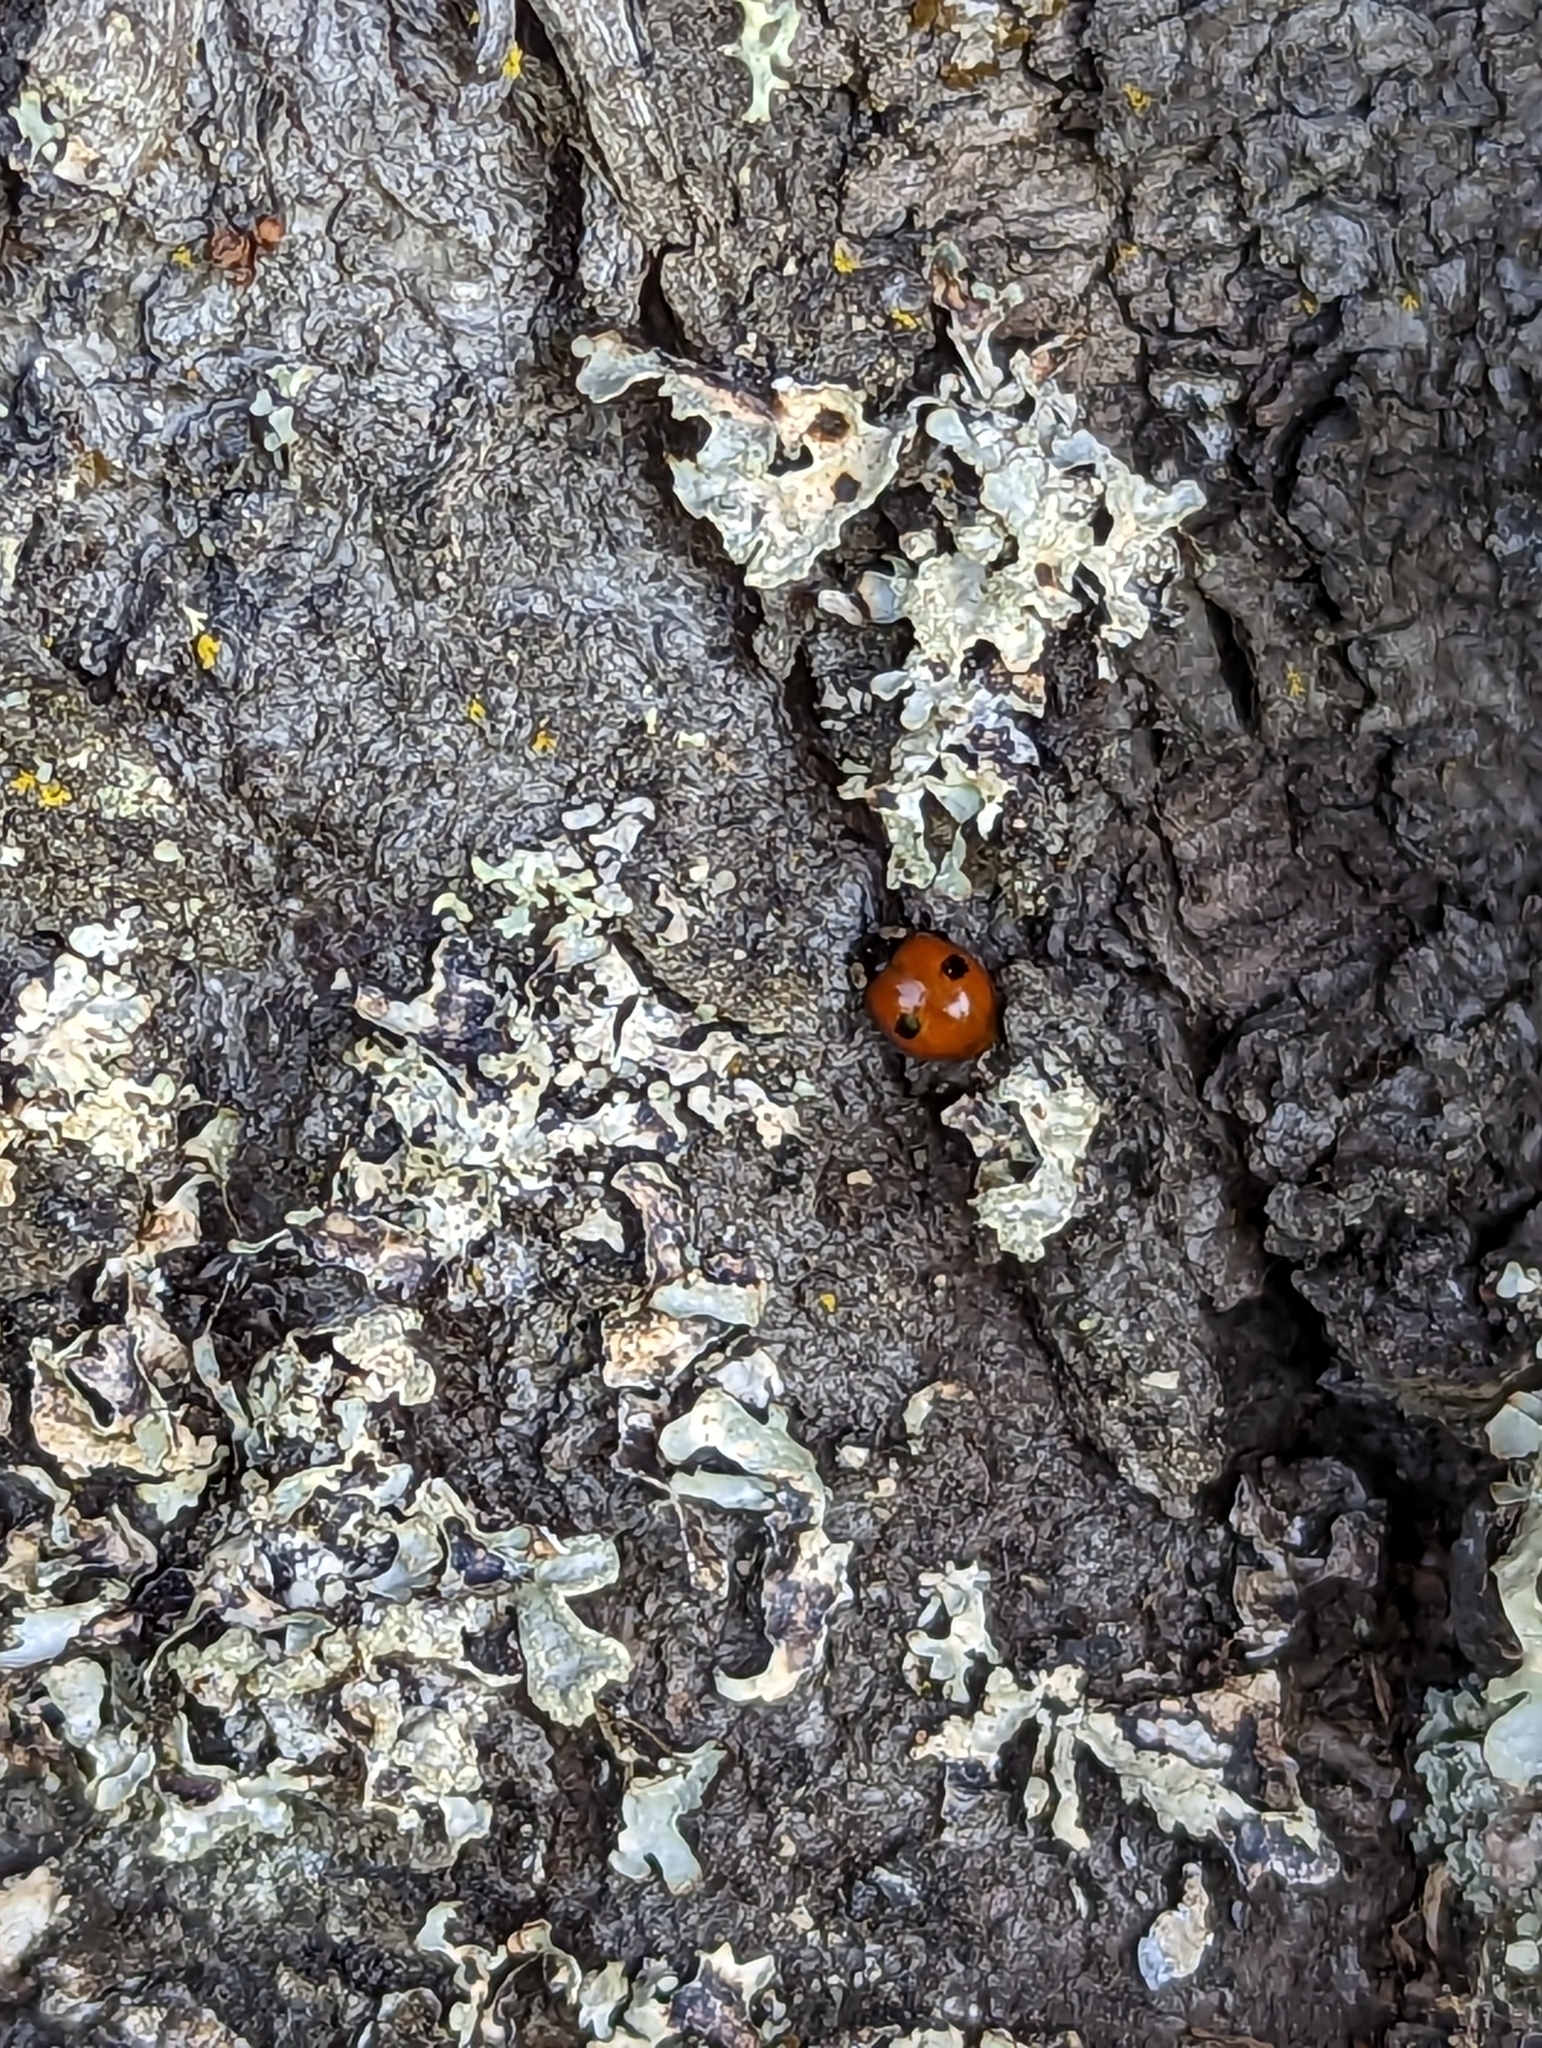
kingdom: Animalia
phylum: Arthropoda
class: Insecta
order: Coleoptera
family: Coccinellidae
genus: Adalia
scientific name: Adalia bipunctata
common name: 2-spot ladybird
